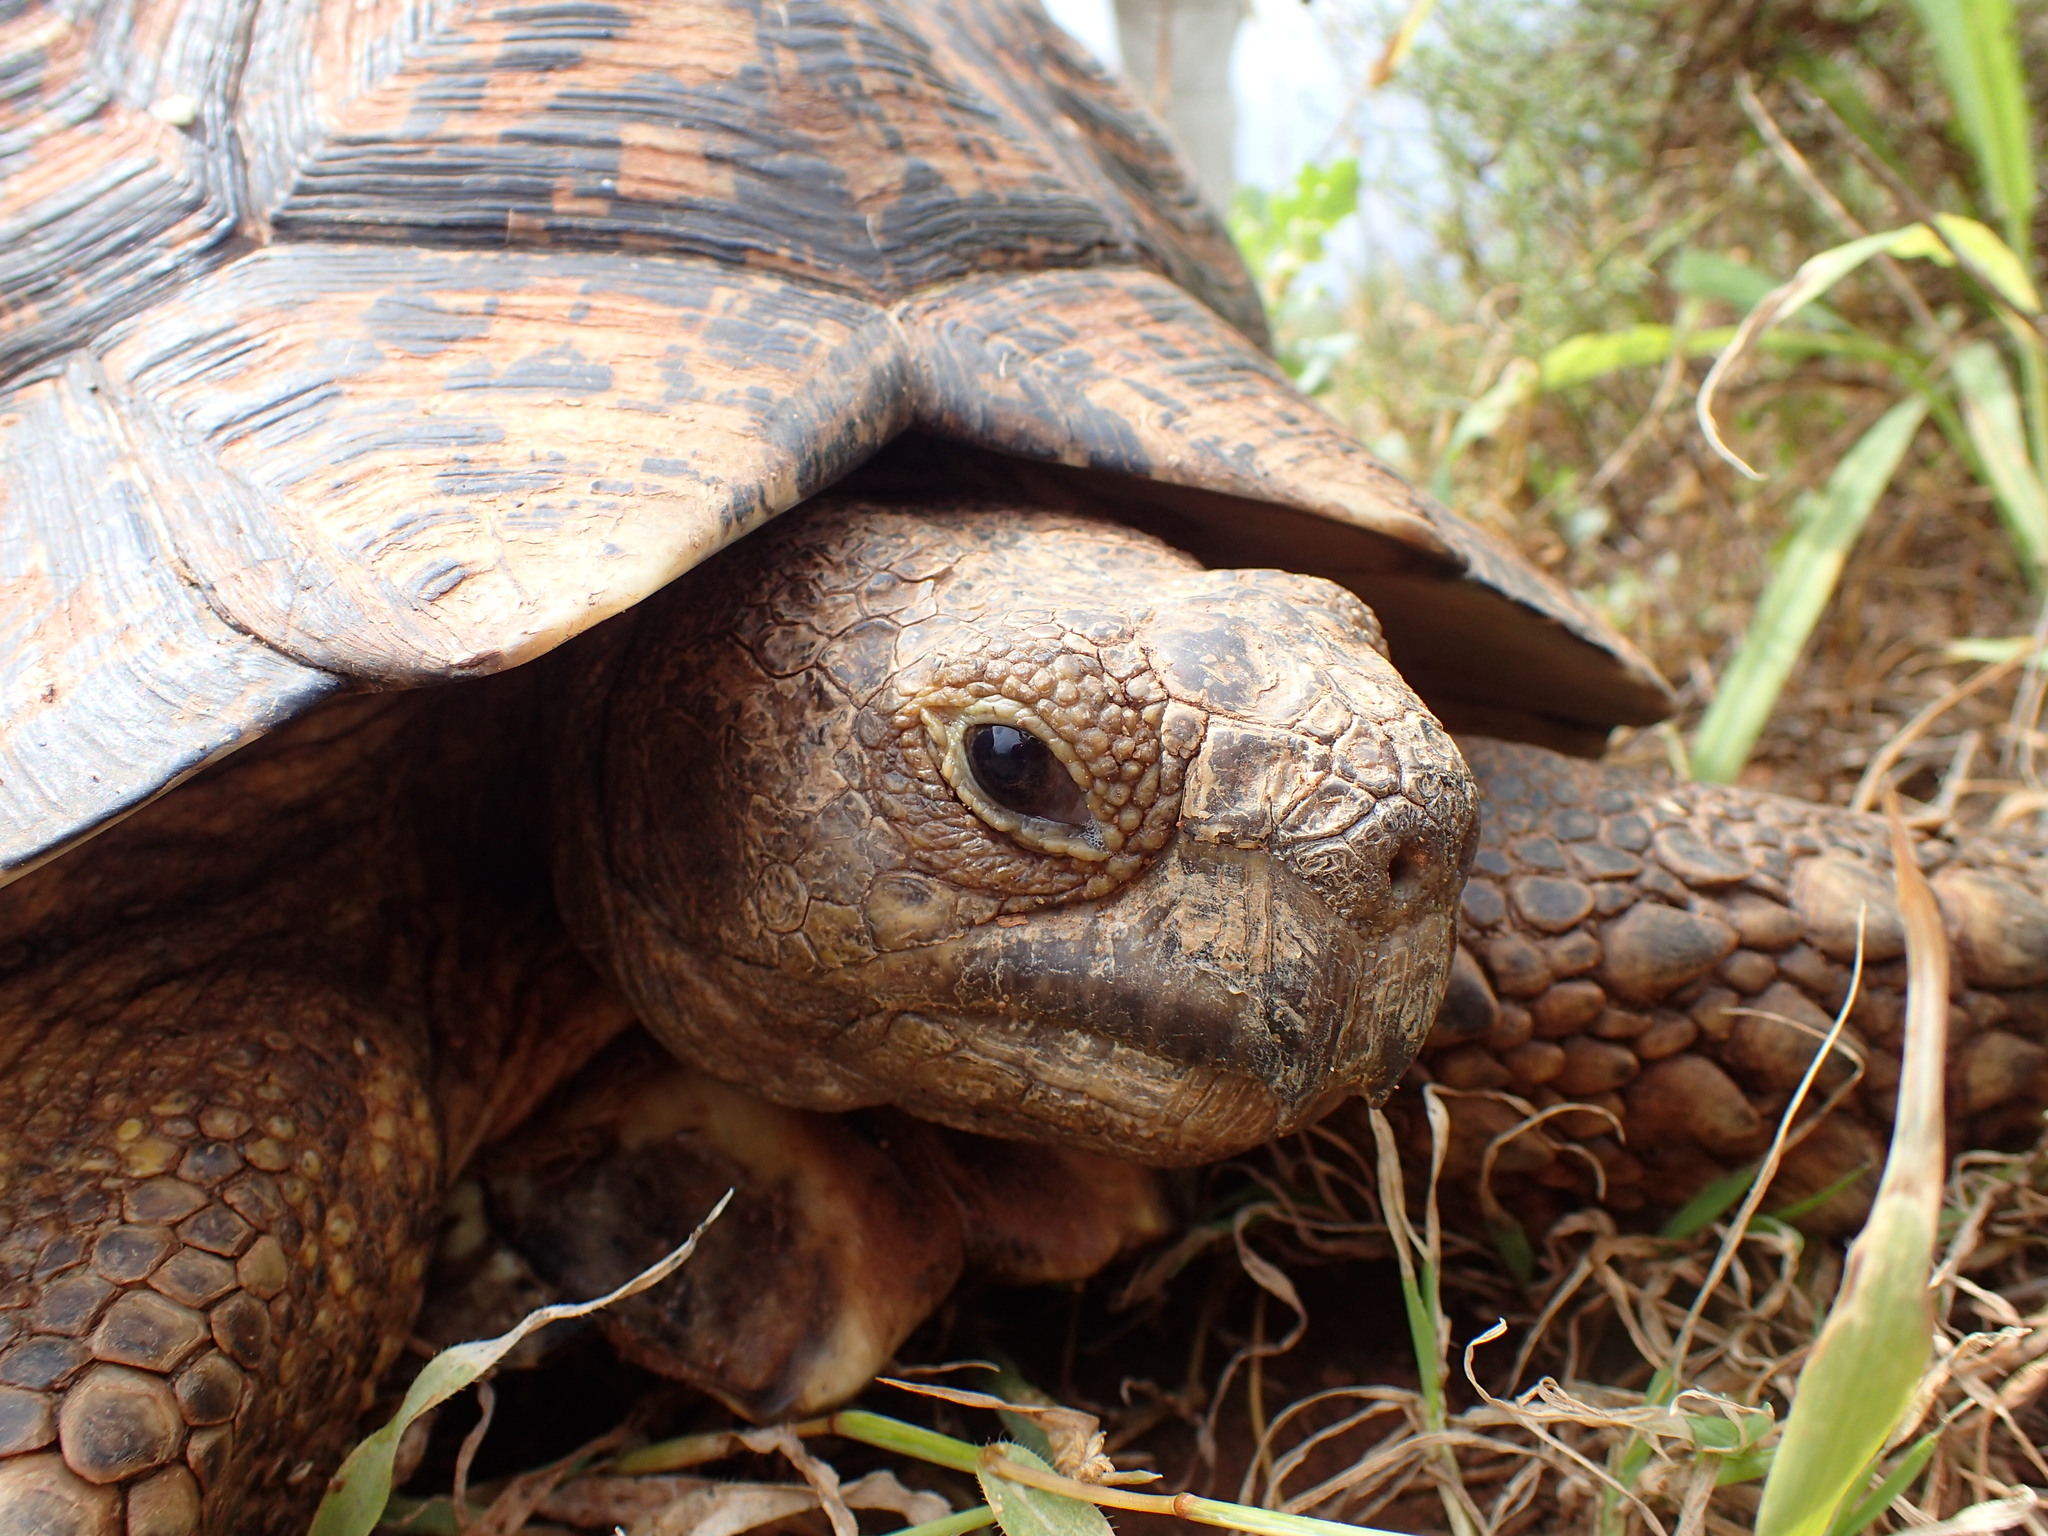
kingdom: Animalia
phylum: Chordata
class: Testudines
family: Testudinidae
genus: Stigmochelys
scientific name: Stigmochelys pardalis
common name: Leopard tortoise
